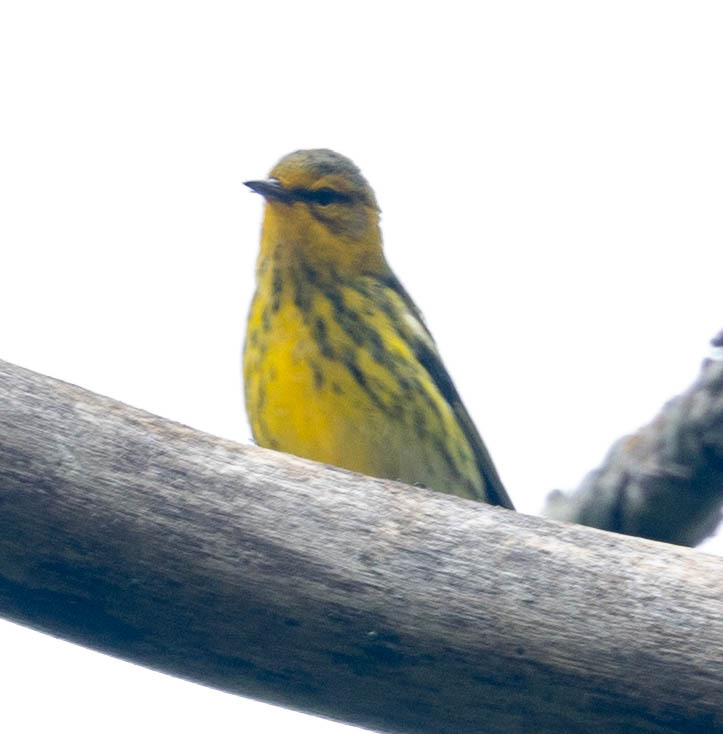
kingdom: Animalia
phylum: Chordata
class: Aves
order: Passeriformes
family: Parulidae
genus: Setophaga
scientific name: Setophaga tigrina
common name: Cape may warbler
